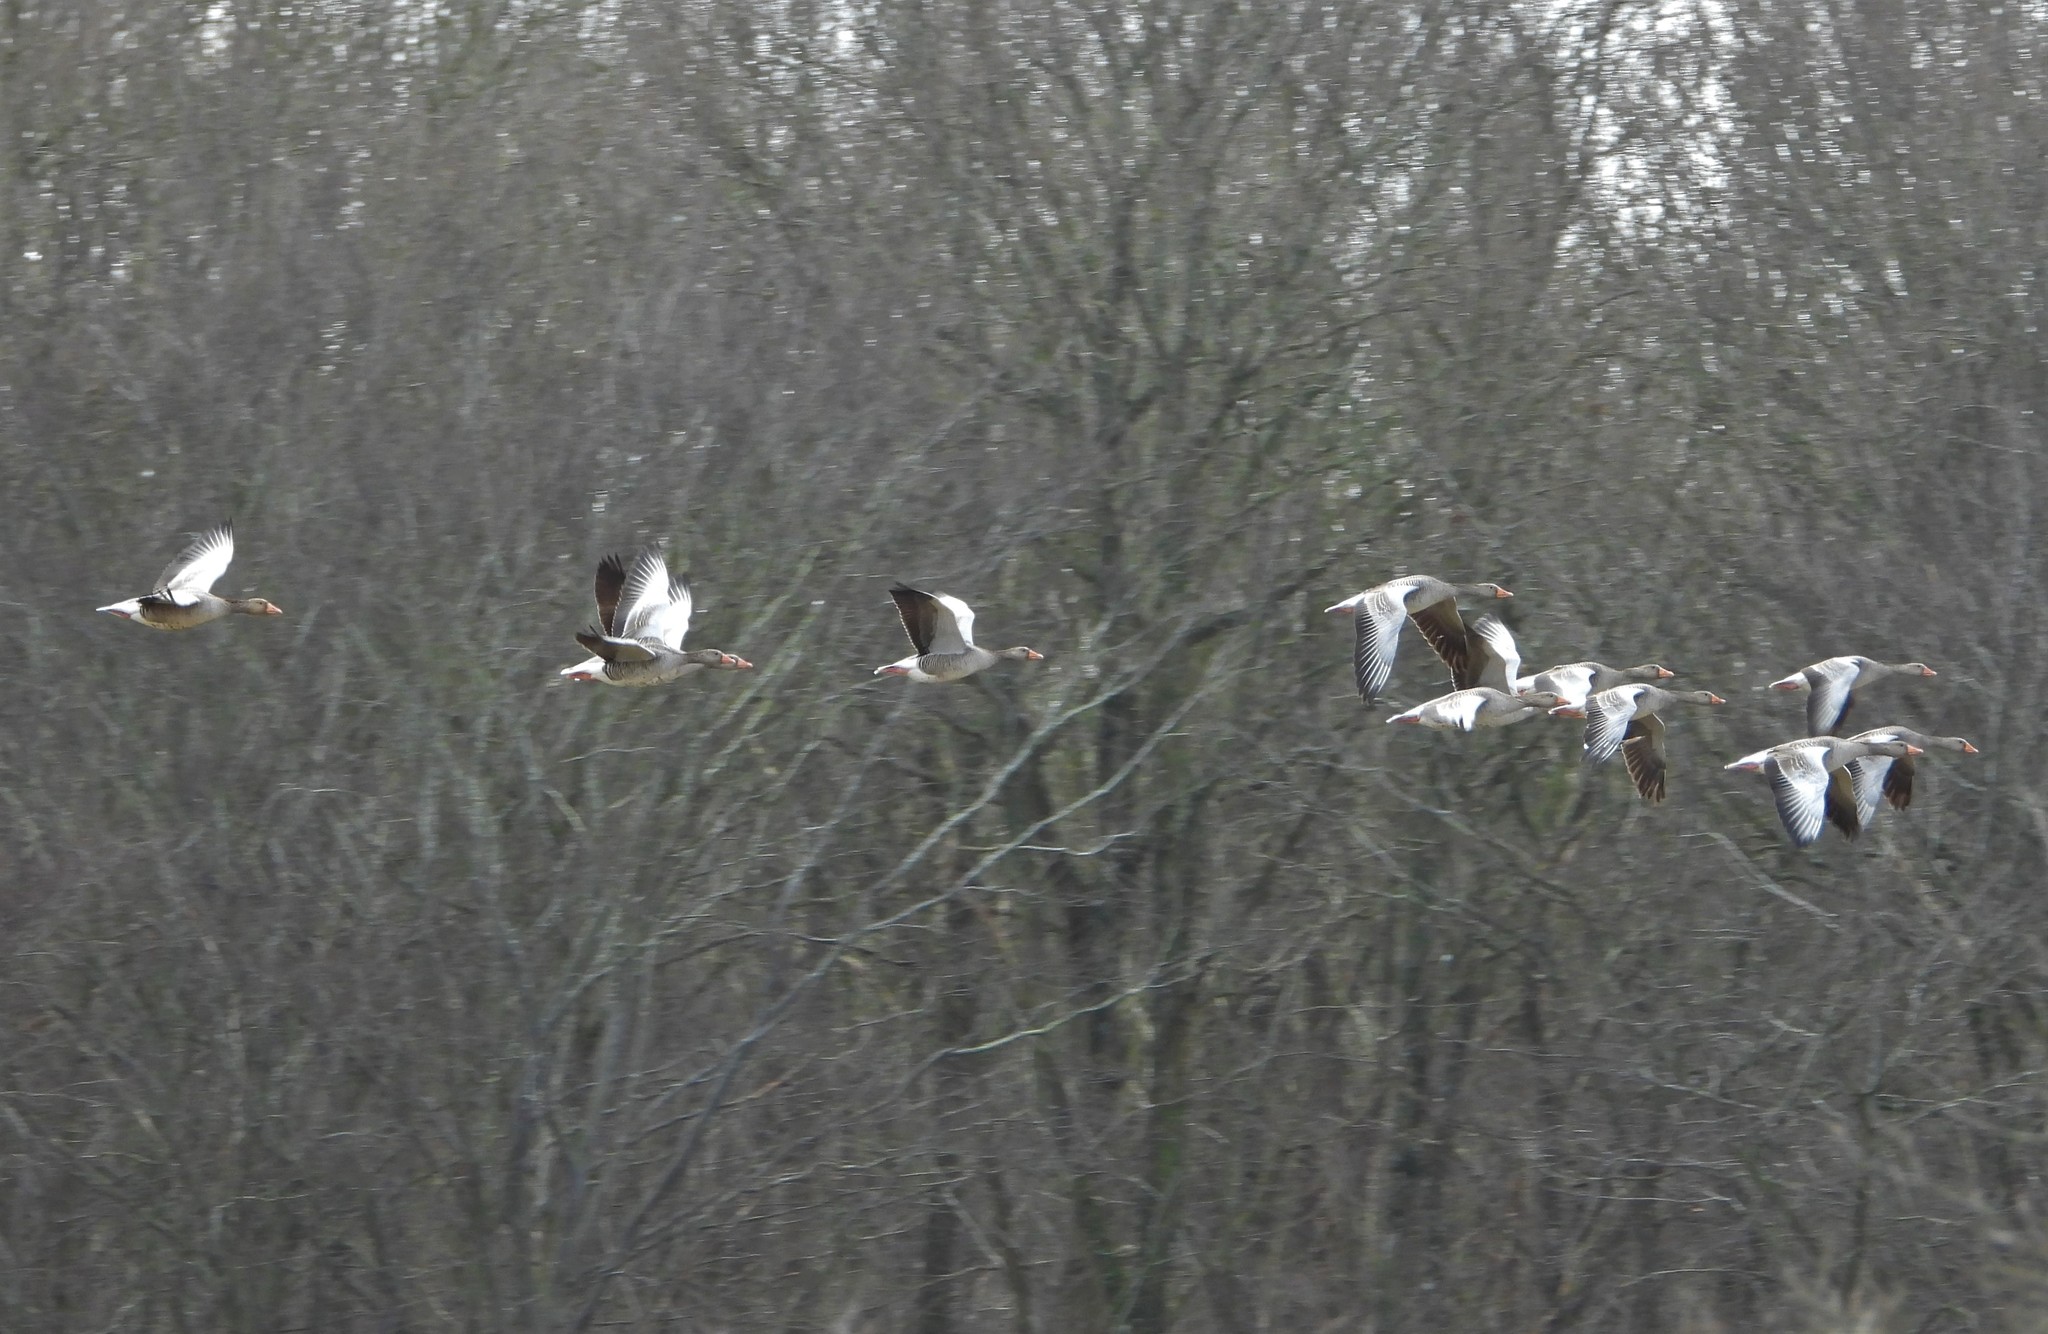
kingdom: Animalia
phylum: Chordata
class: Aves
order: Anseriformes
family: Anatidae
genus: Anser
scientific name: Anser anser
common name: Greylag goose
